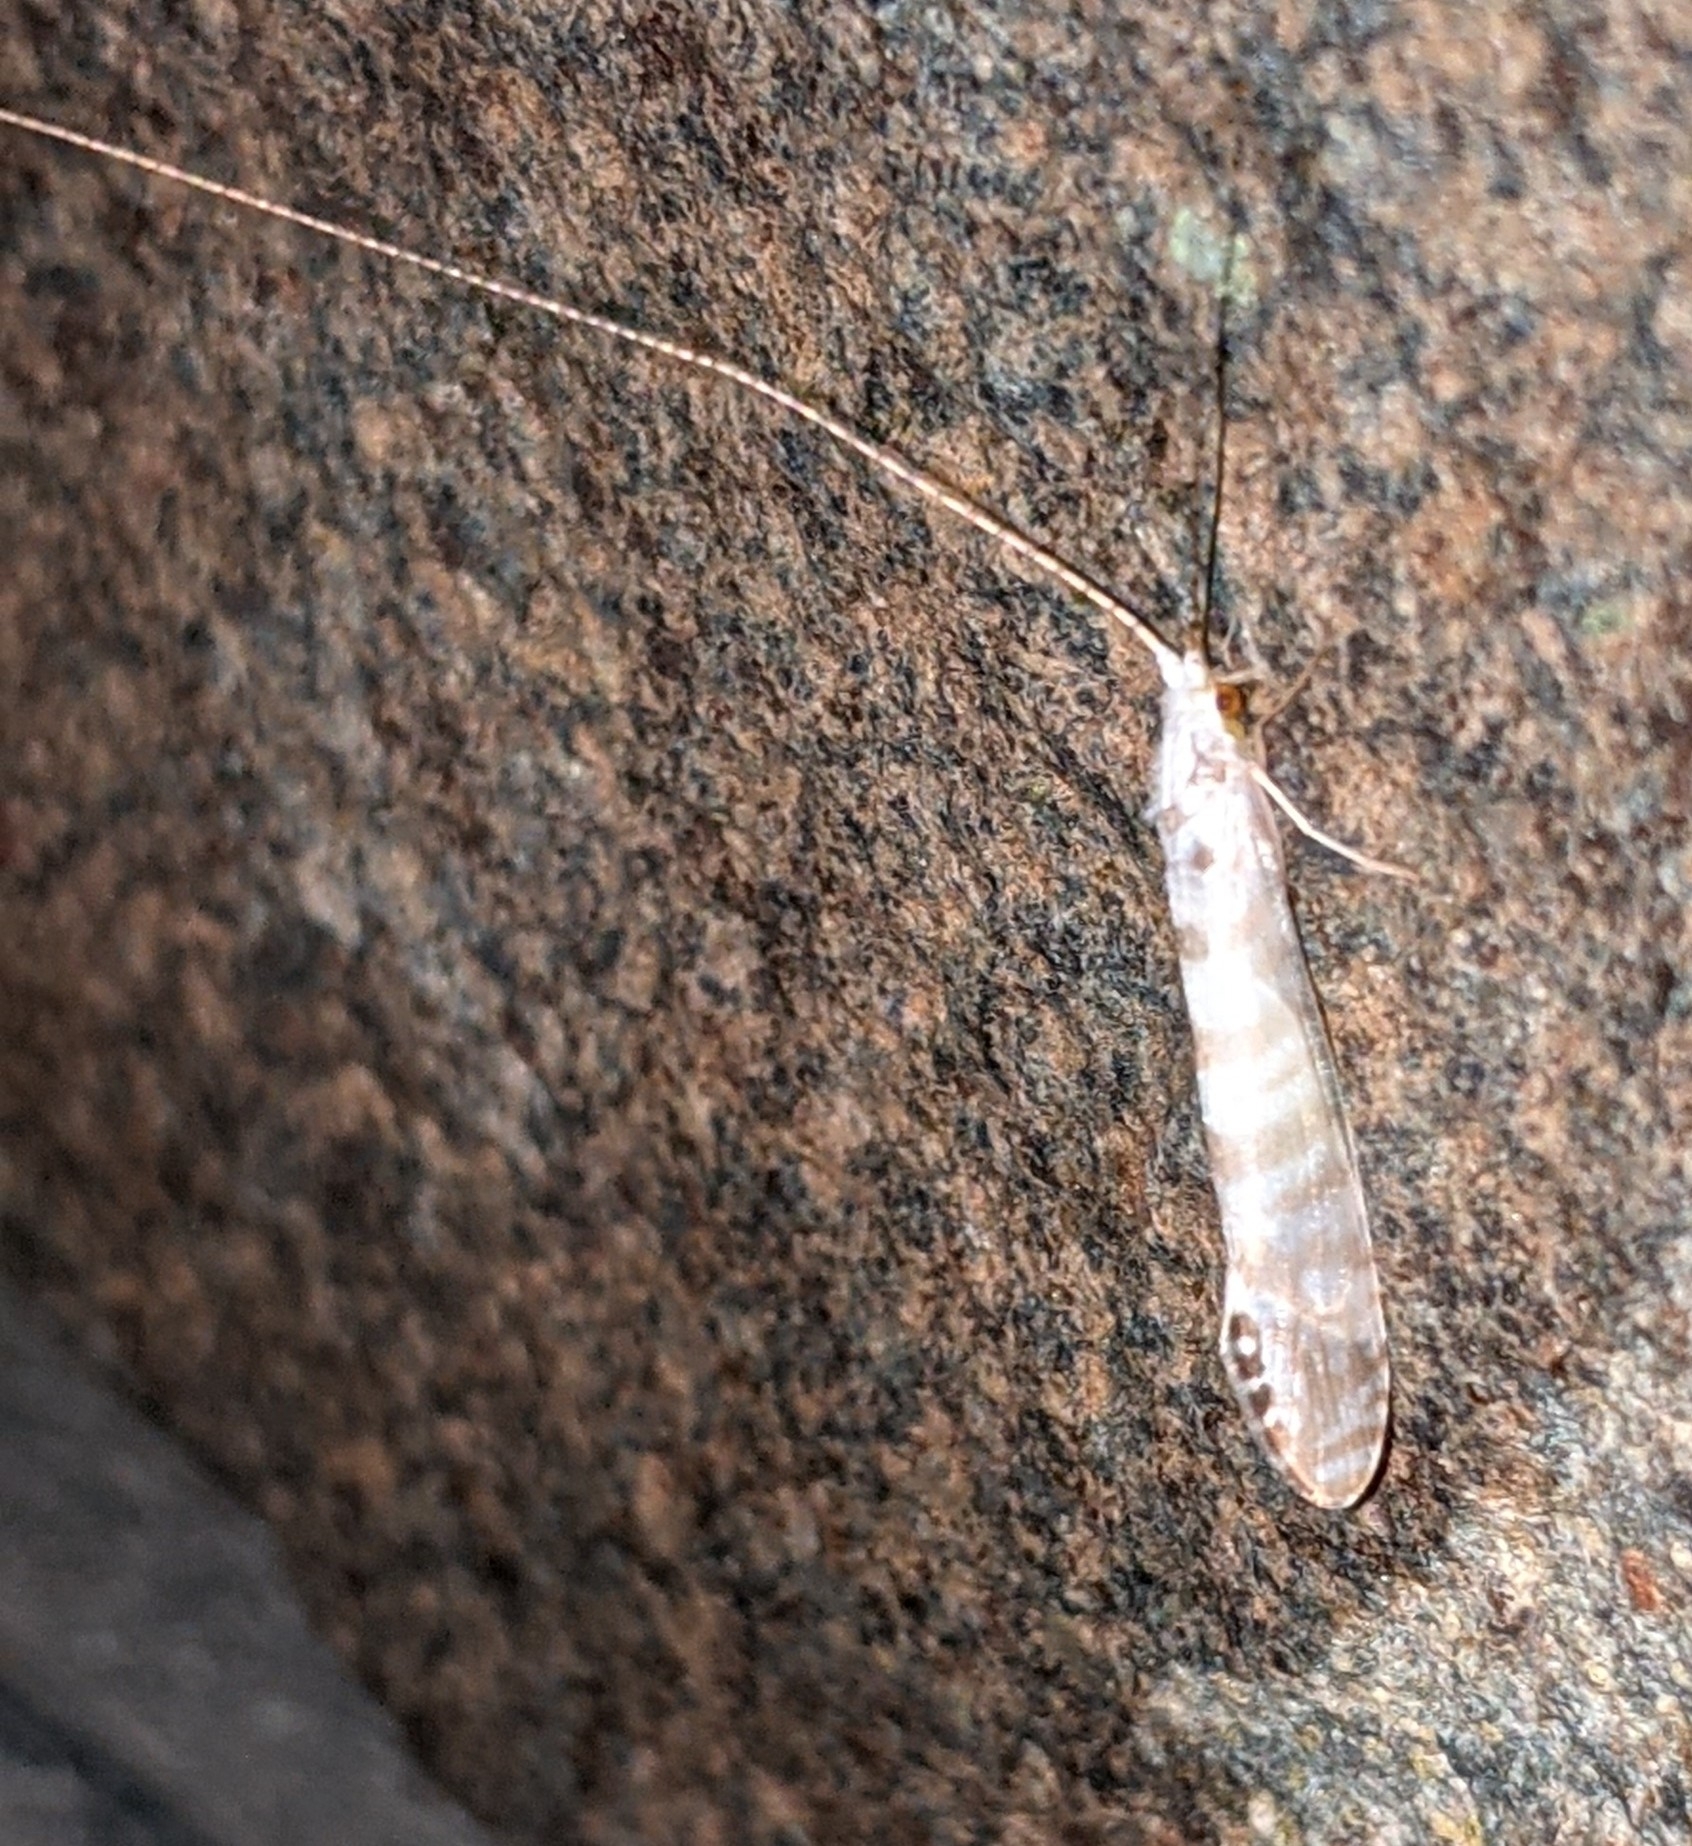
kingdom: Animalia
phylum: Arthropoda
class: Insecta
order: Trichoptera
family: Leptoceridae
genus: Nectopsyche
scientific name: Nectopsyche exquisita
